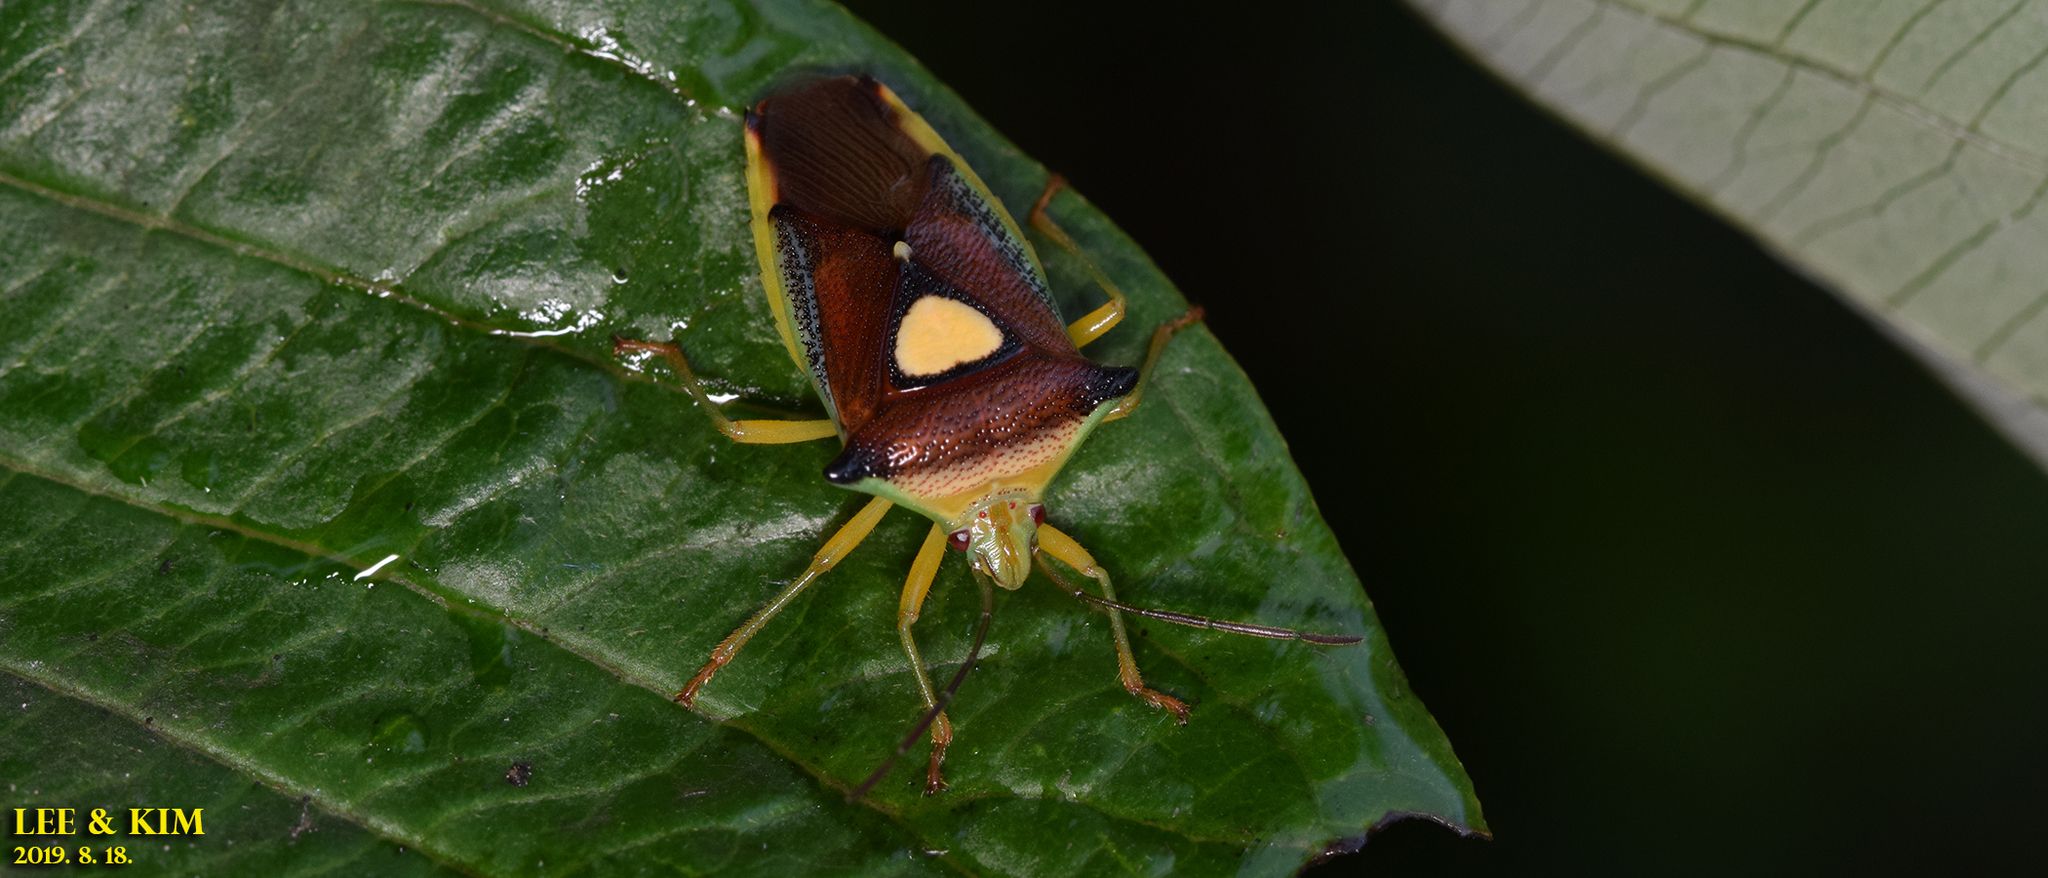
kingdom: Animalia
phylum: Arthropoda
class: Insecta
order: Hemiptera
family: Acanthosomatidae
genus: Sastragala
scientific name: Sastragala esakii
